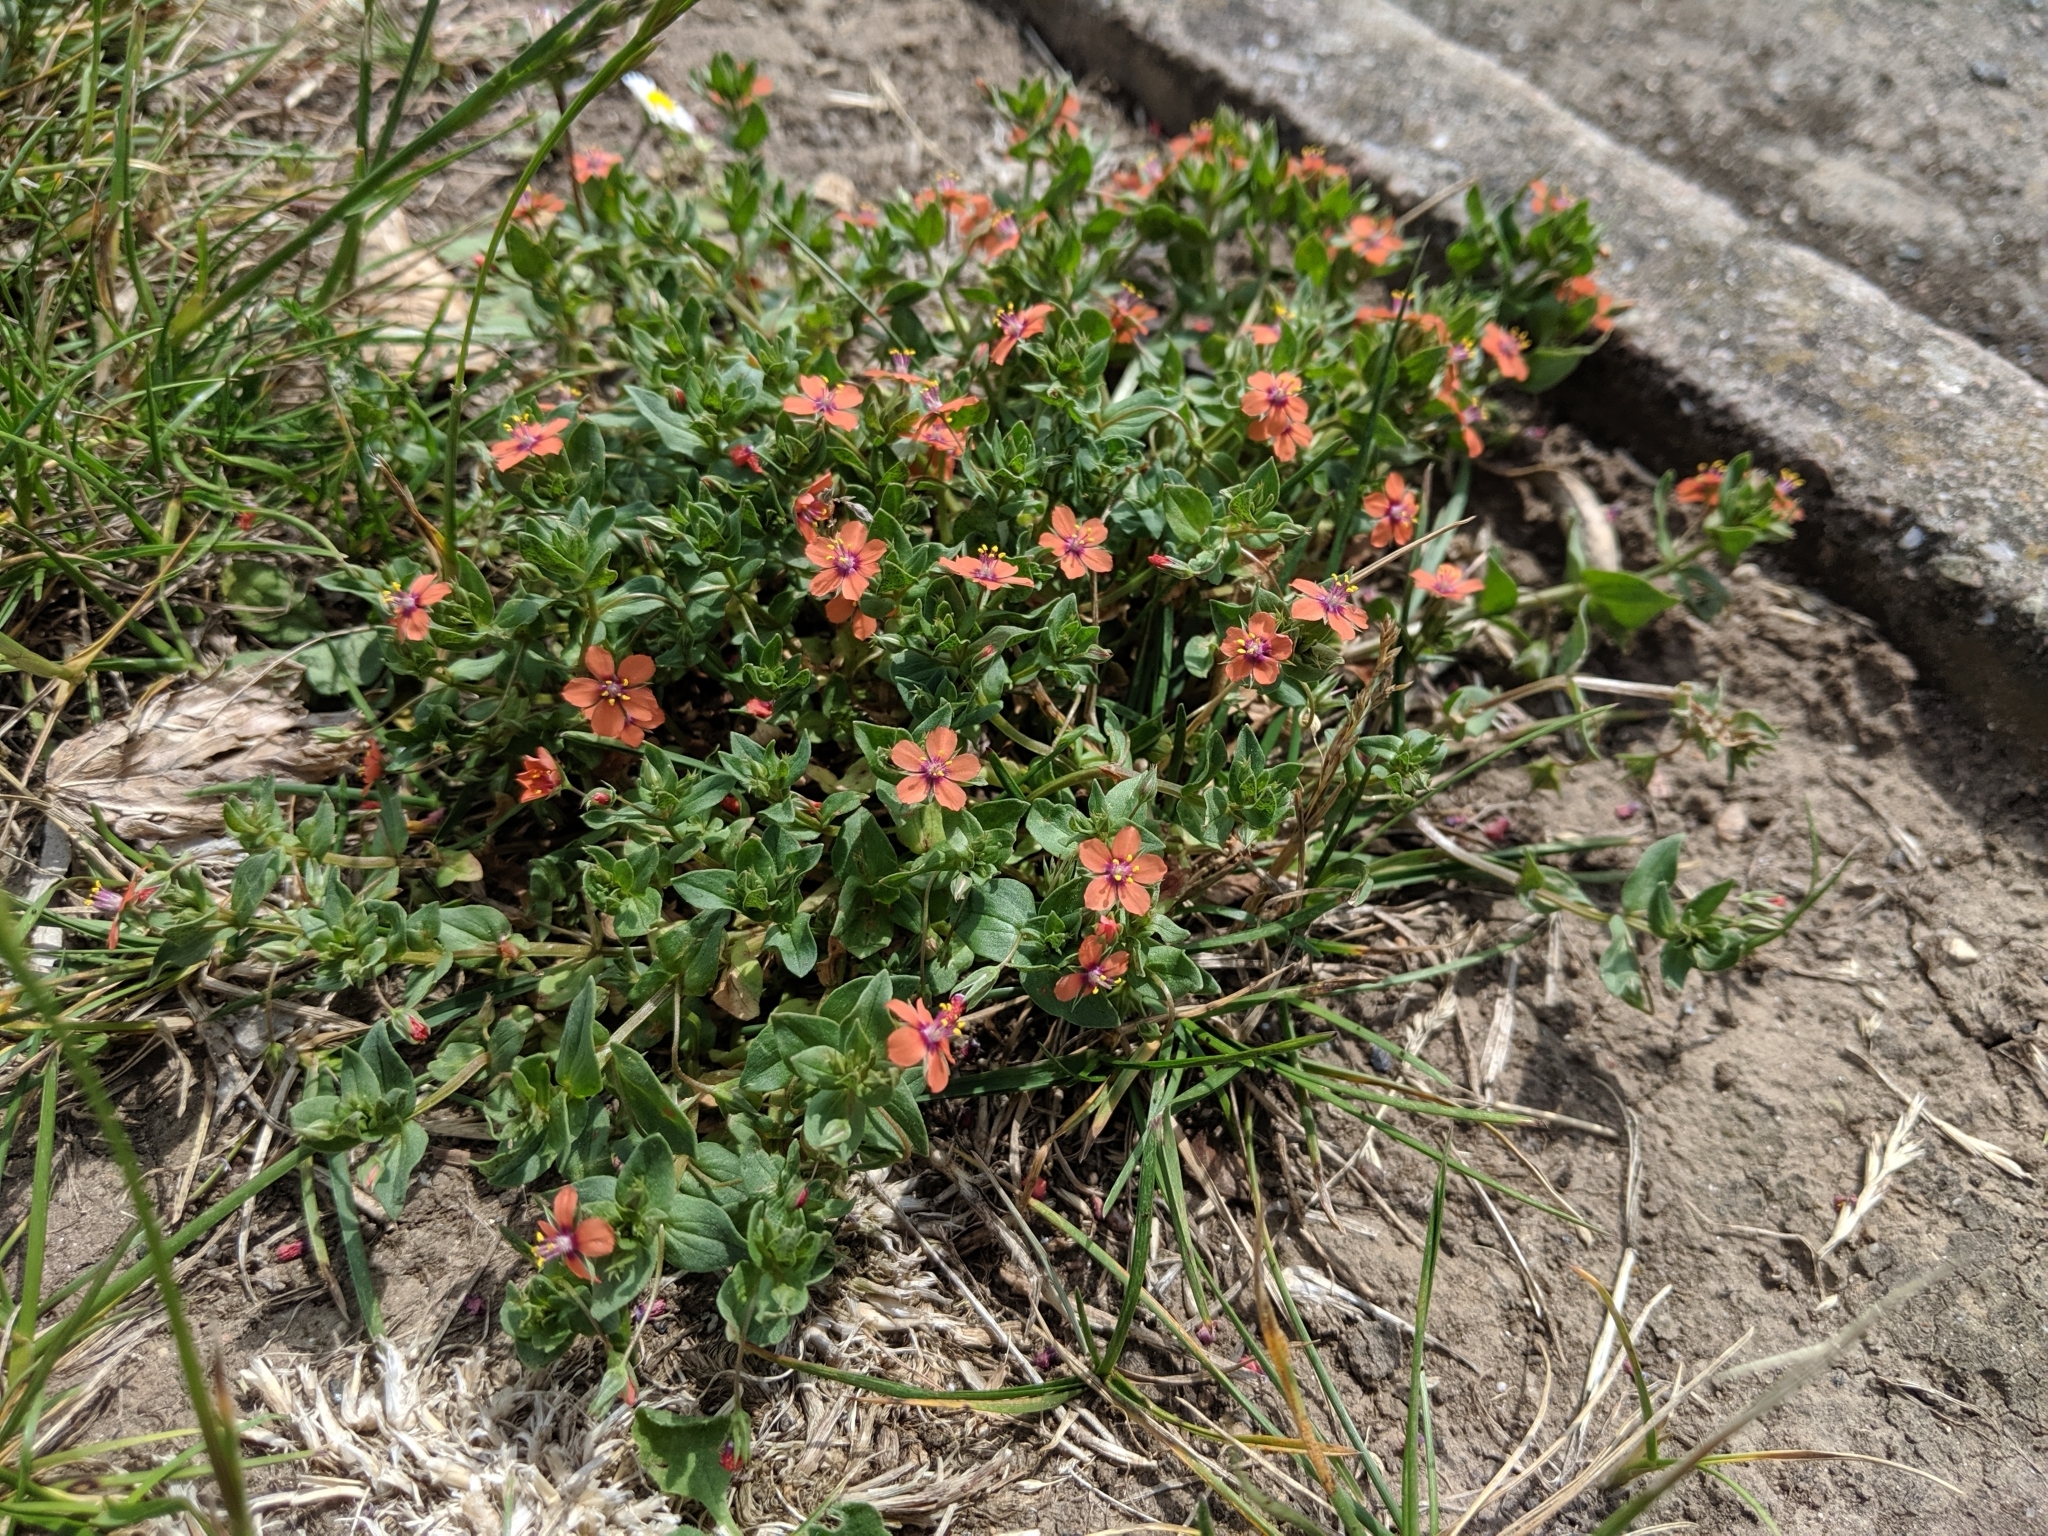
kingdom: Plantae
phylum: Tracheophyta
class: Magnoliopsida
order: Ericales
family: Primulaceae
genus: Lysimachia
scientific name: Lysimachia arvensis
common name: Scarlet pimpernel
